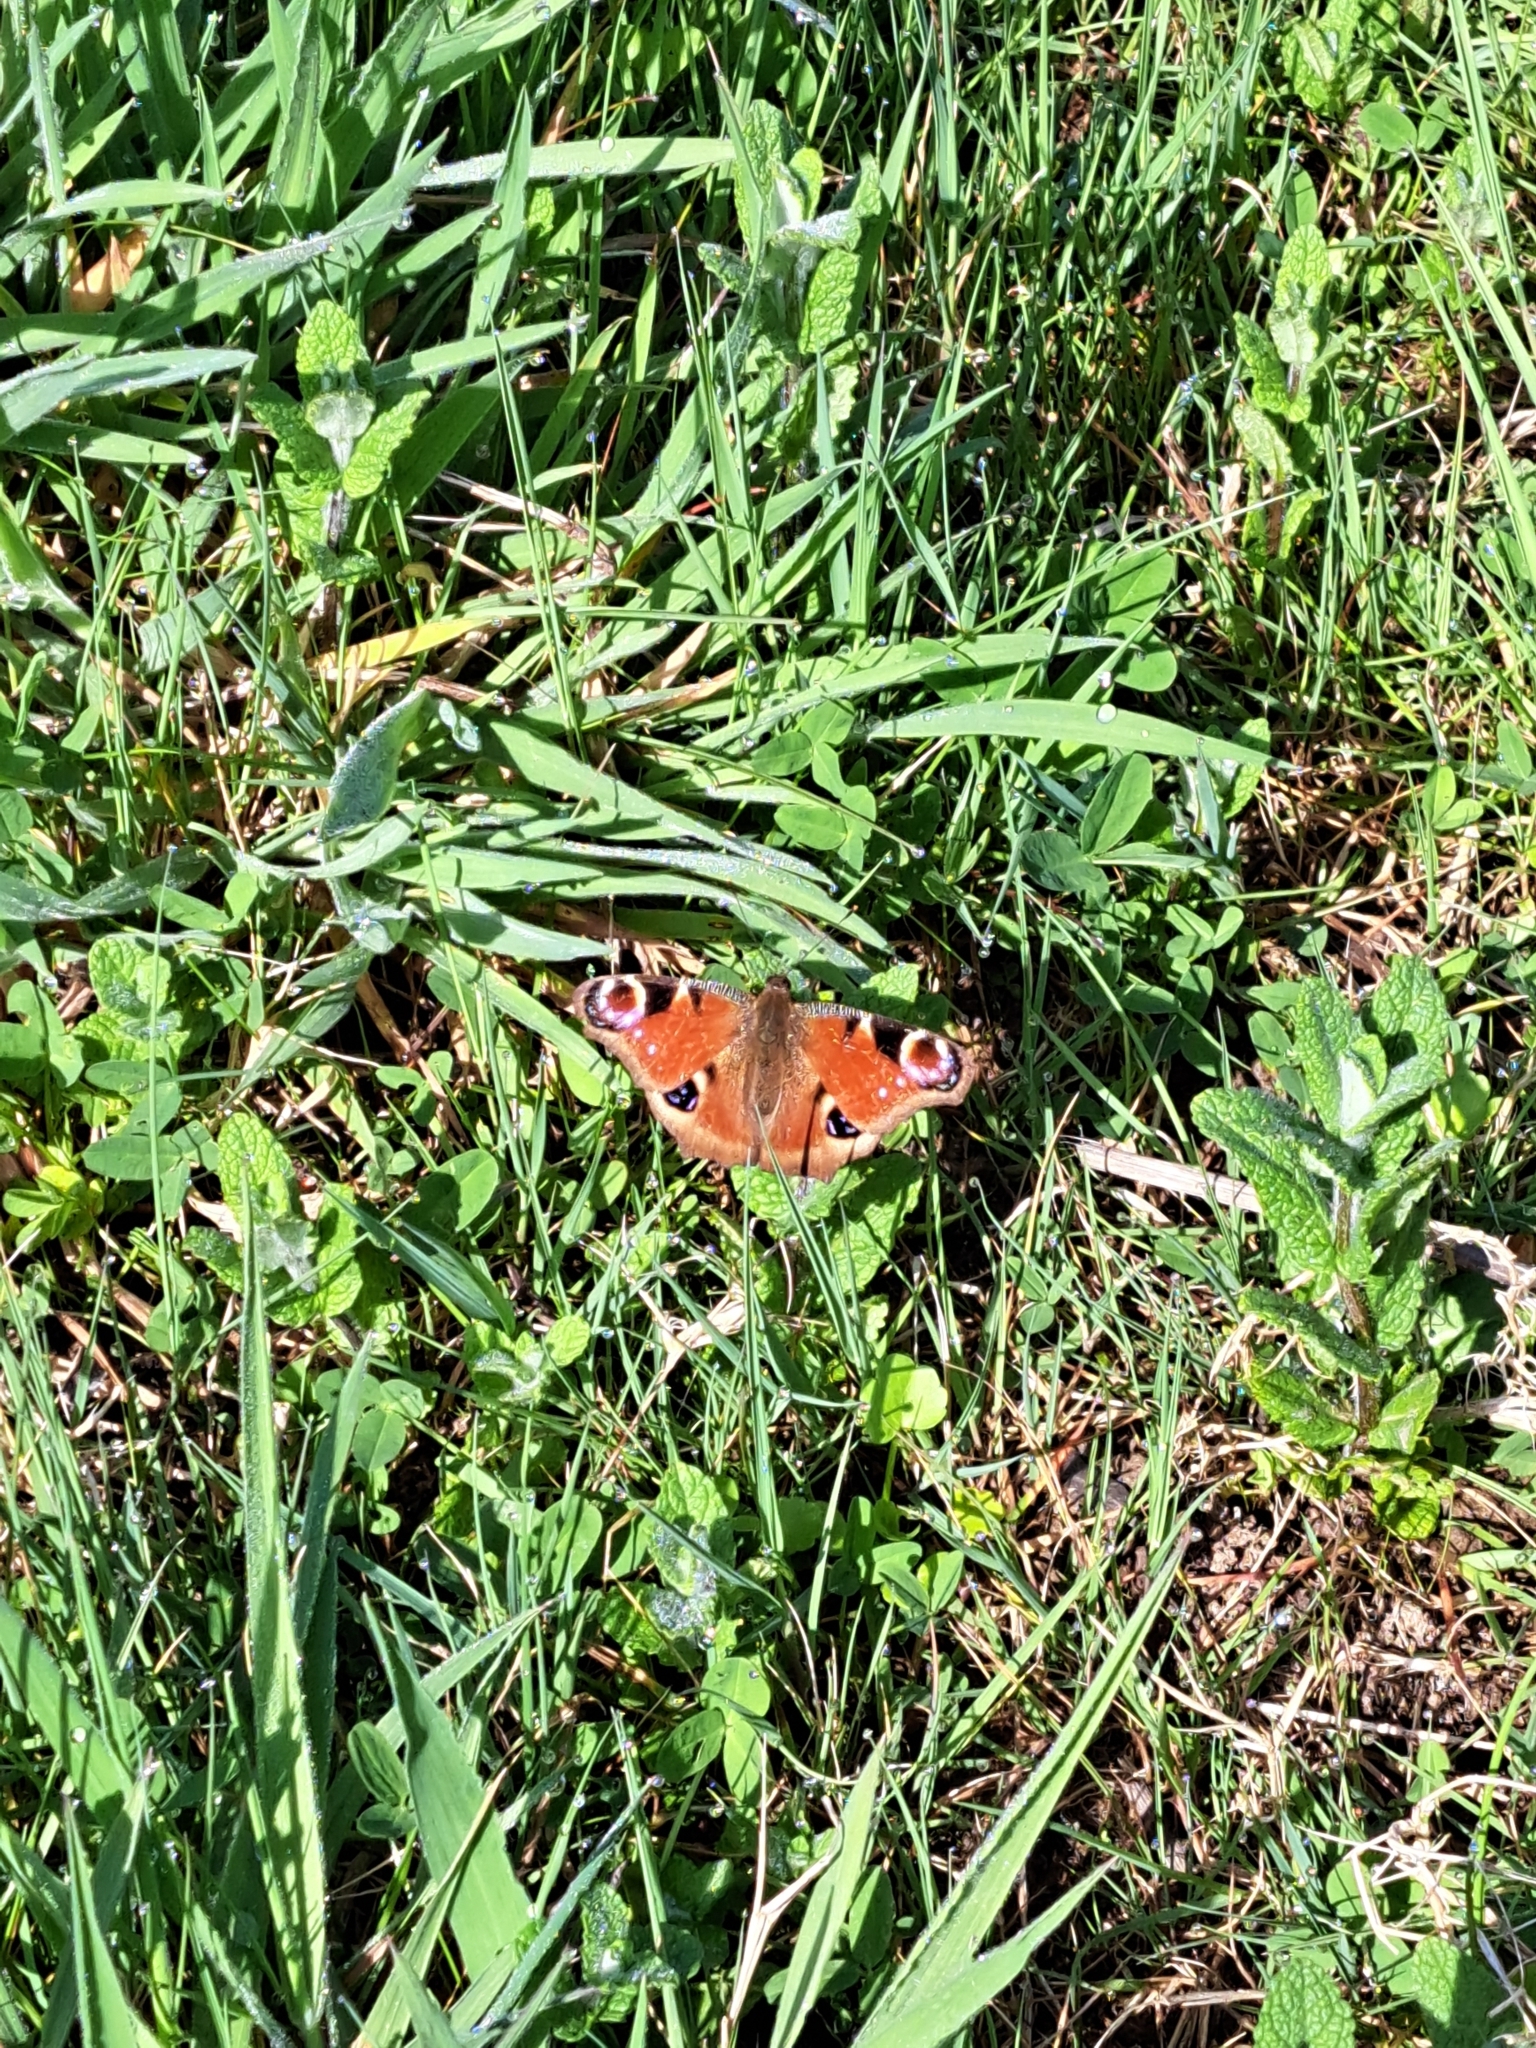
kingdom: Animalia
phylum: Arthropoda
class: Insecta
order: Lepidoptera
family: Nymphalidae
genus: Aglais
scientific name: Aglais io
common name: Peacock
